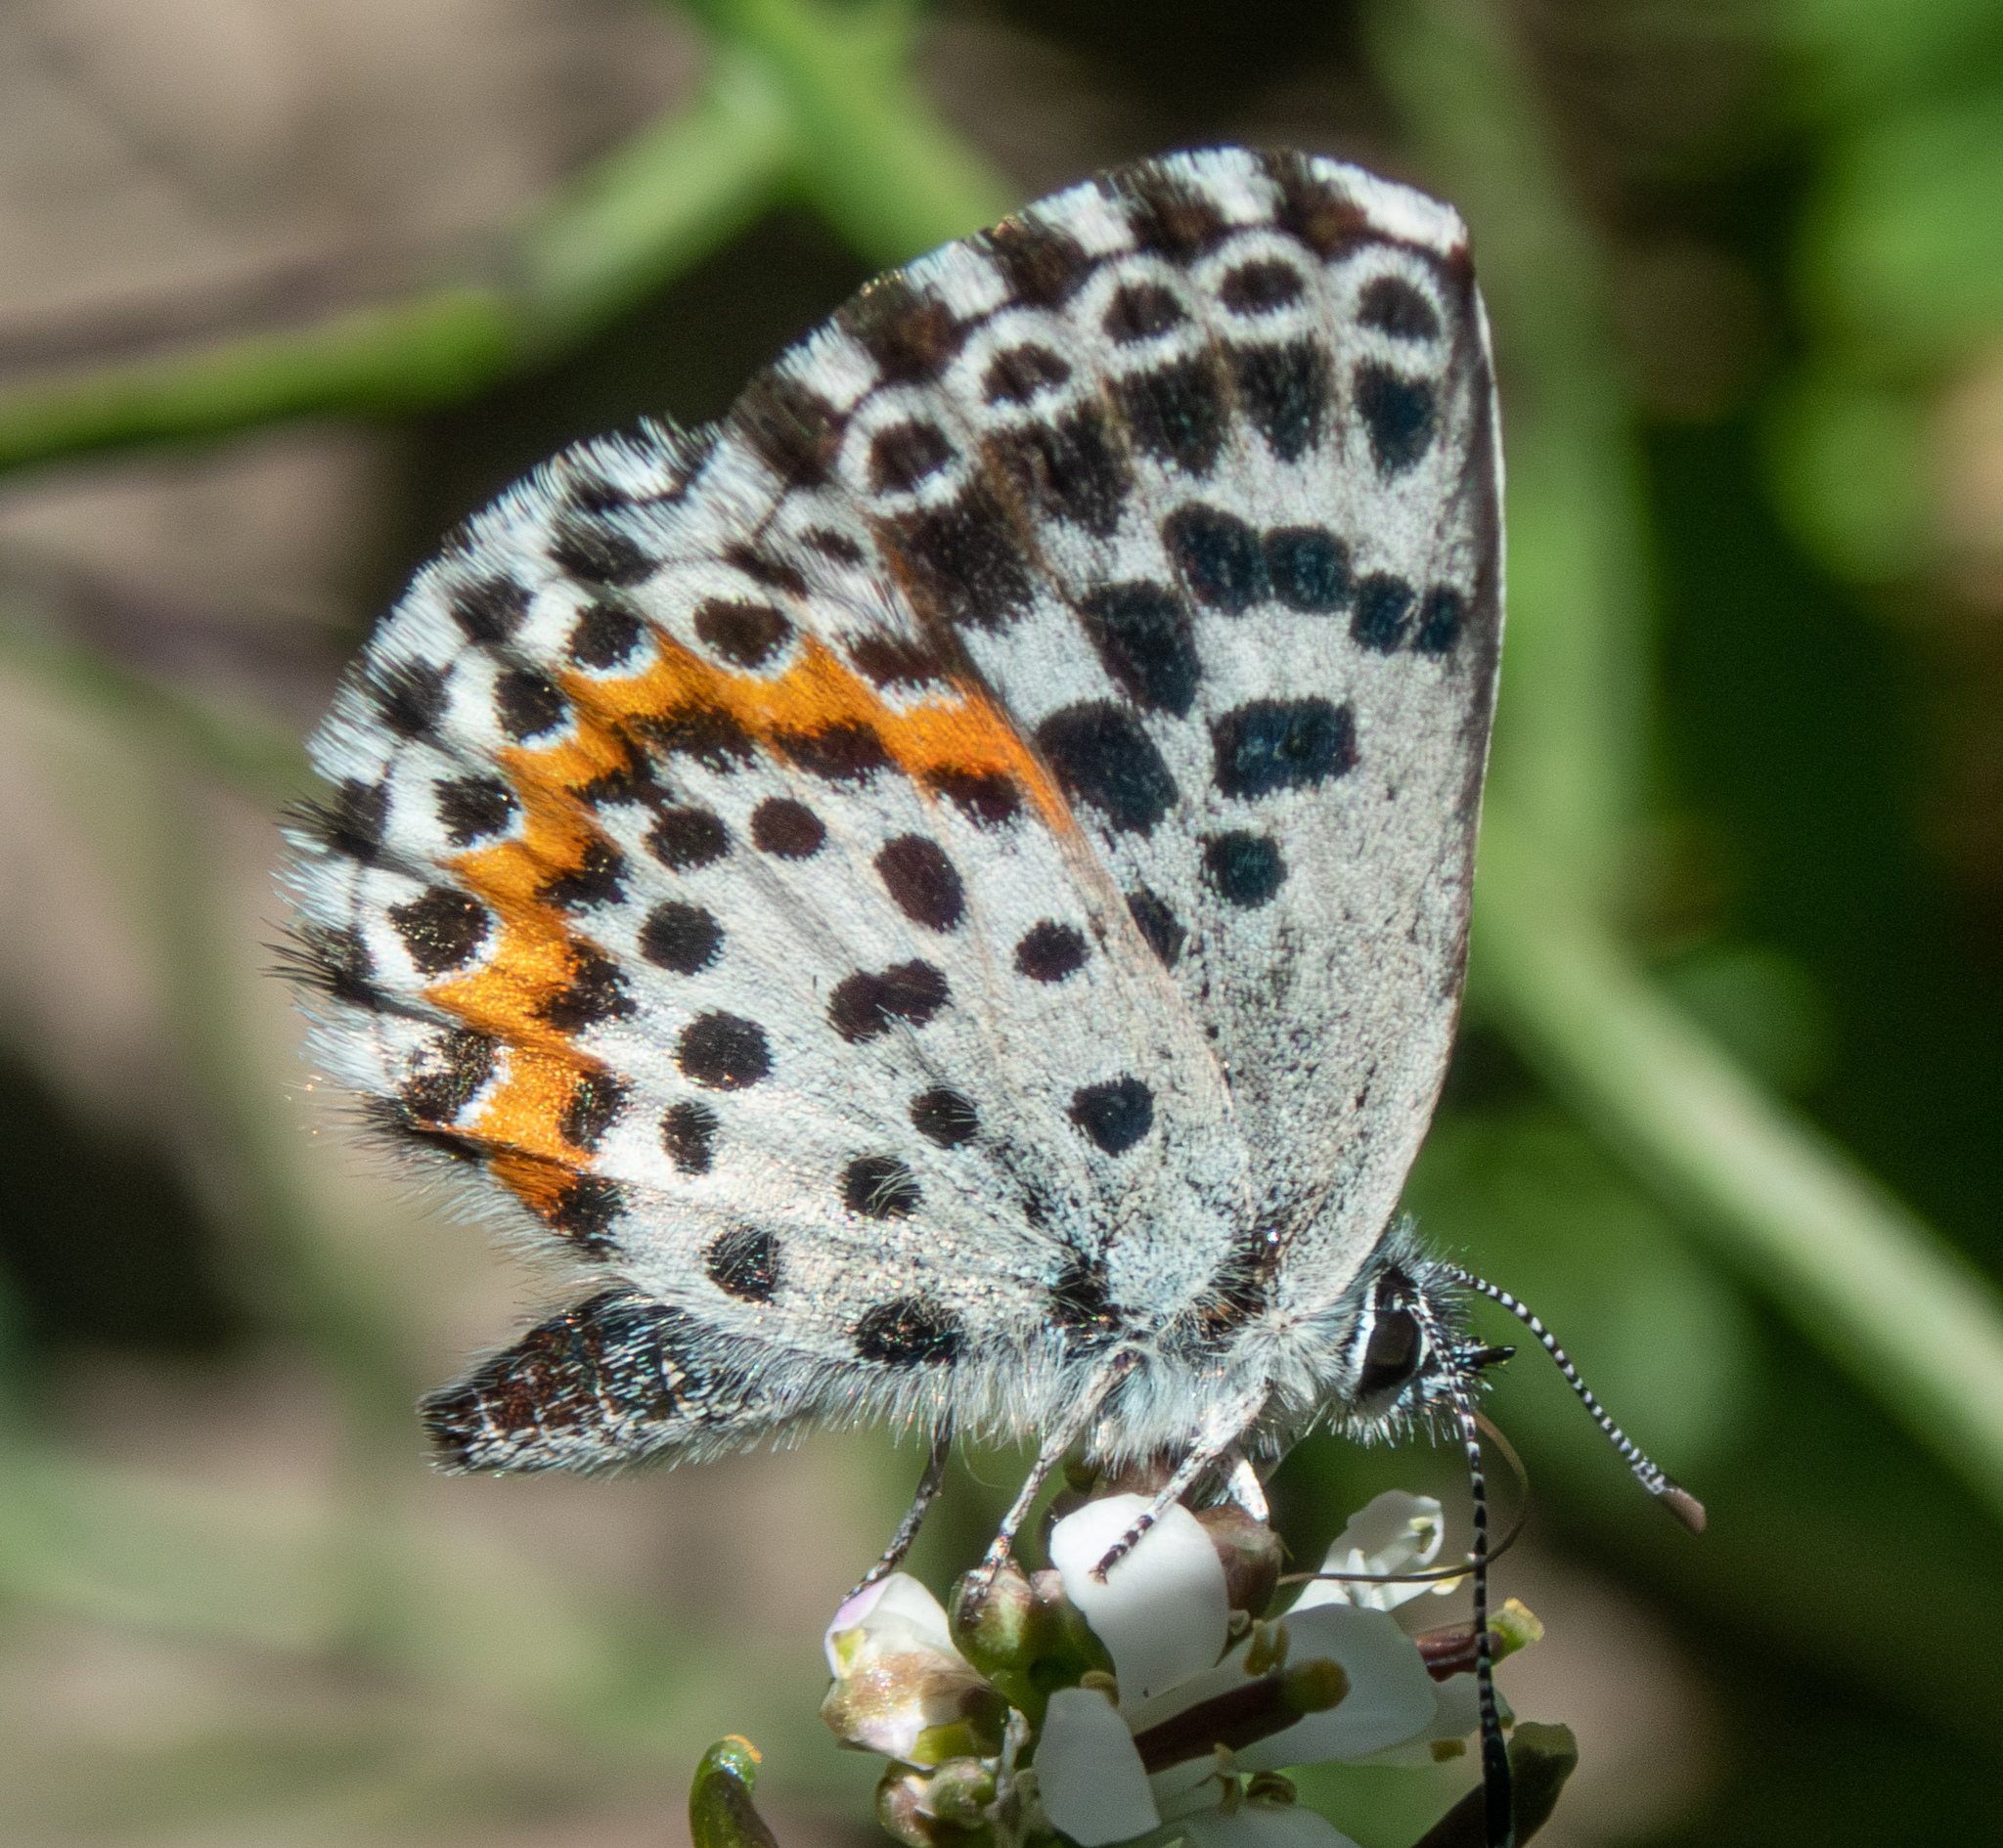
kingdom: Animalia
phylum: Arthropoda
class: Insecta
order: Lepidoptera
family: Lycaenidae
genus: Scolitantides
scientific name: Scolitantides orion
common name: Chequered blue
